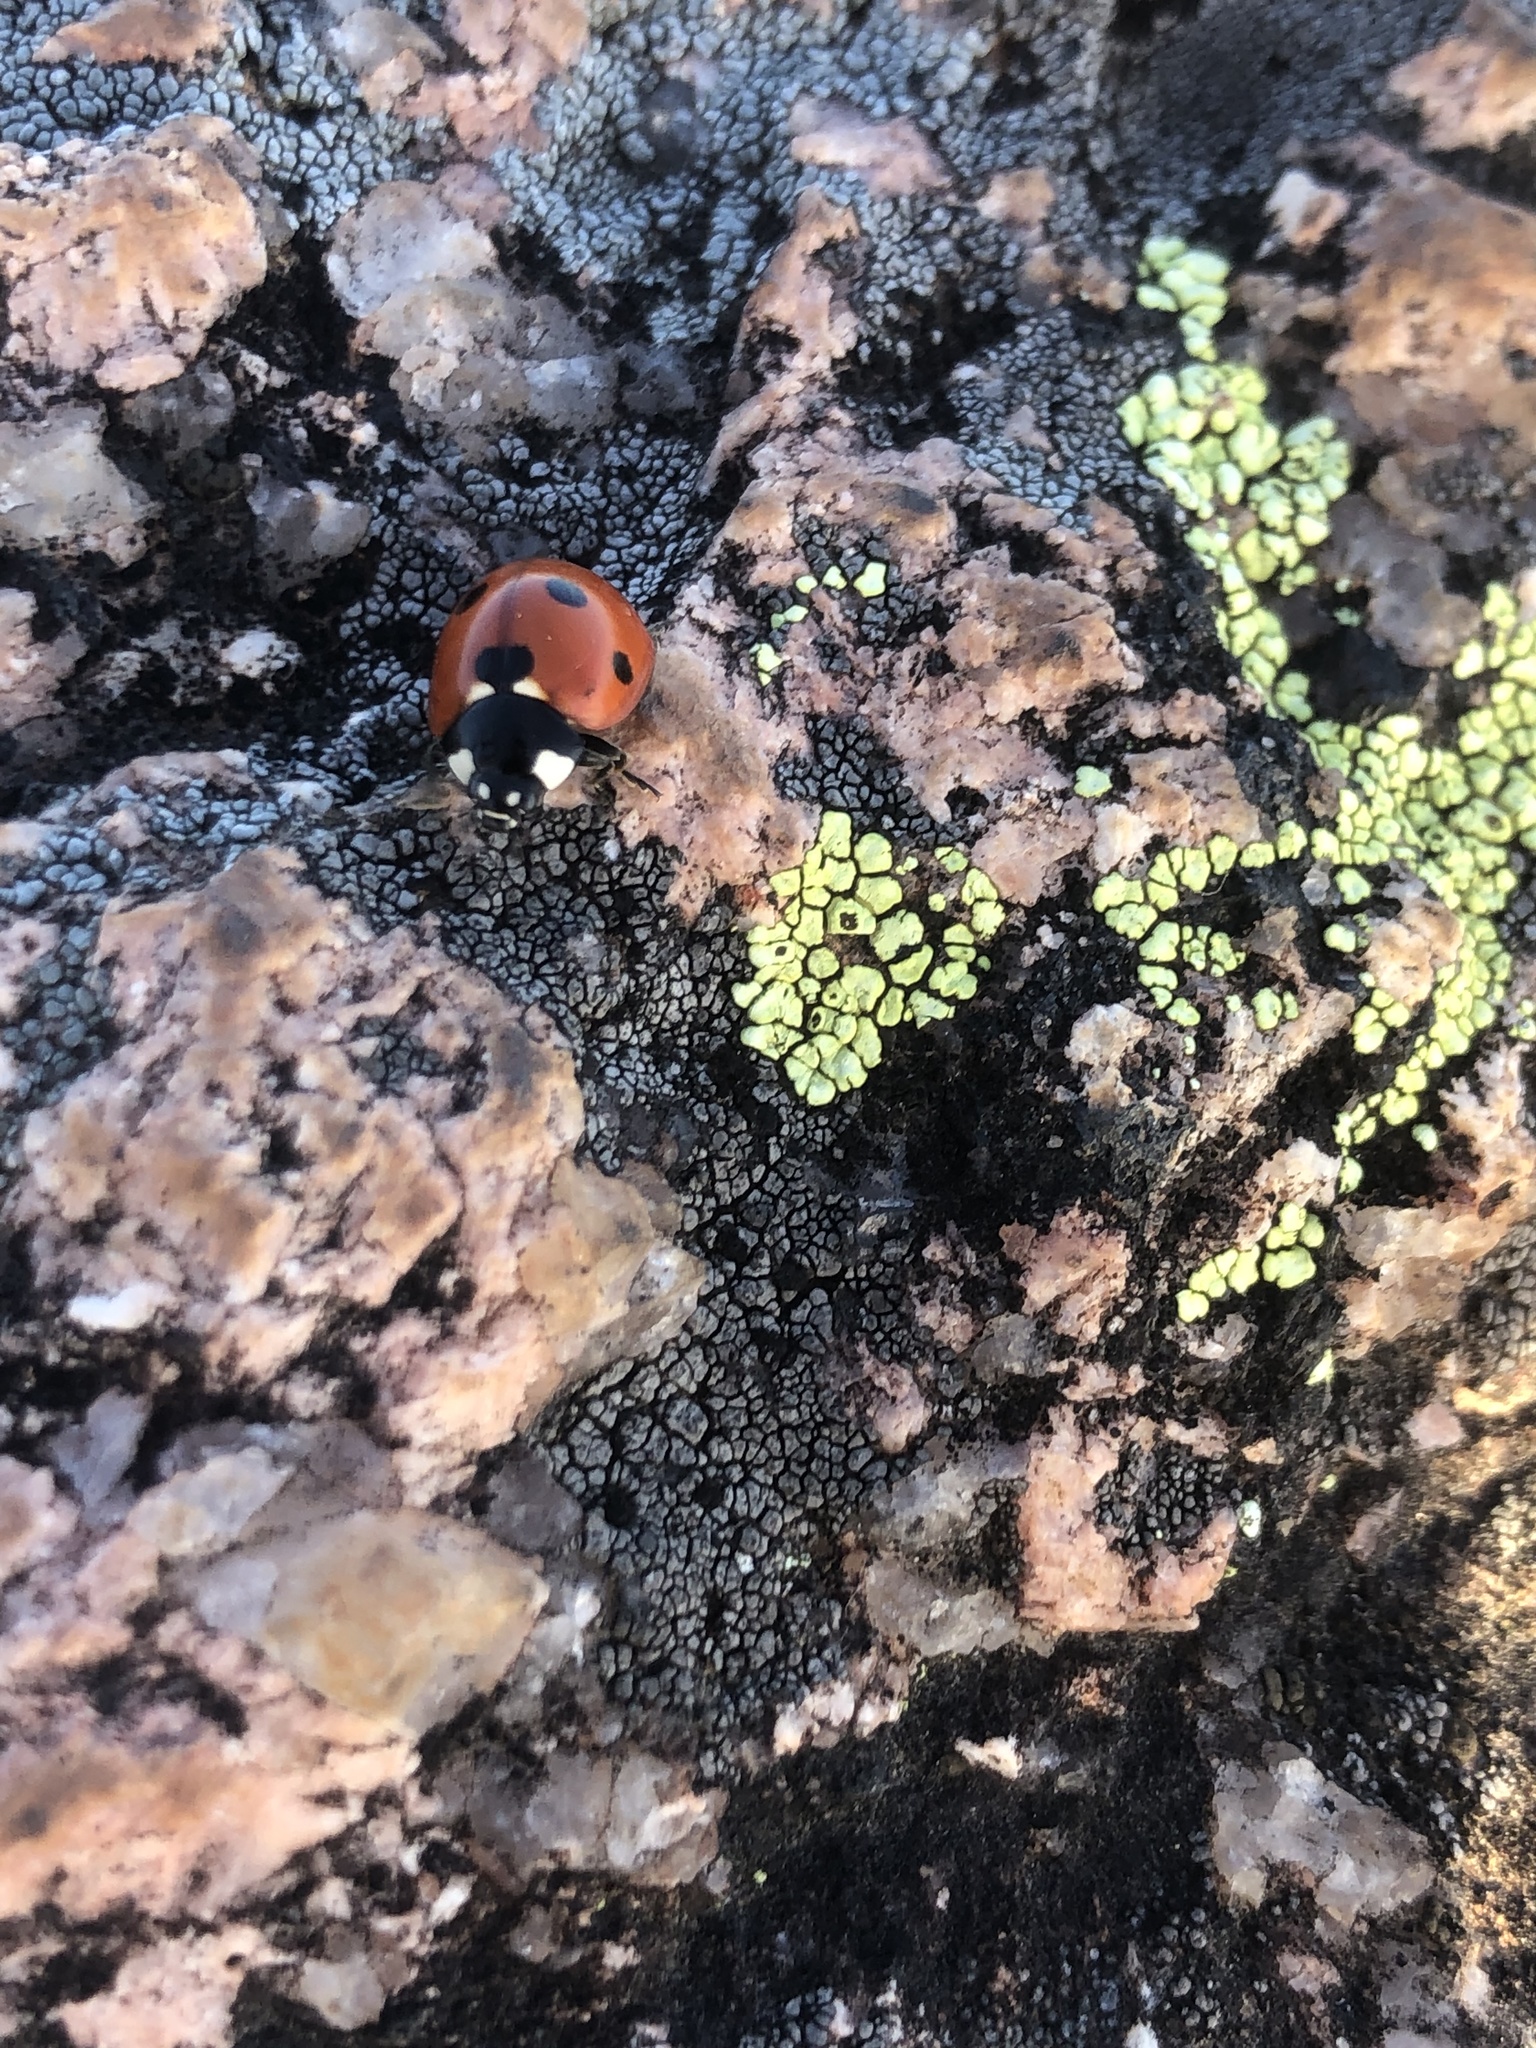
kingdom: Animalia
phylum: Arthropoda
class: Insecta
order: Coleoptera
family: Coccinellidae
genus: Coccinella
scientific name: Coccinella septempunctata
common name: Sevenspotted lady beetle
